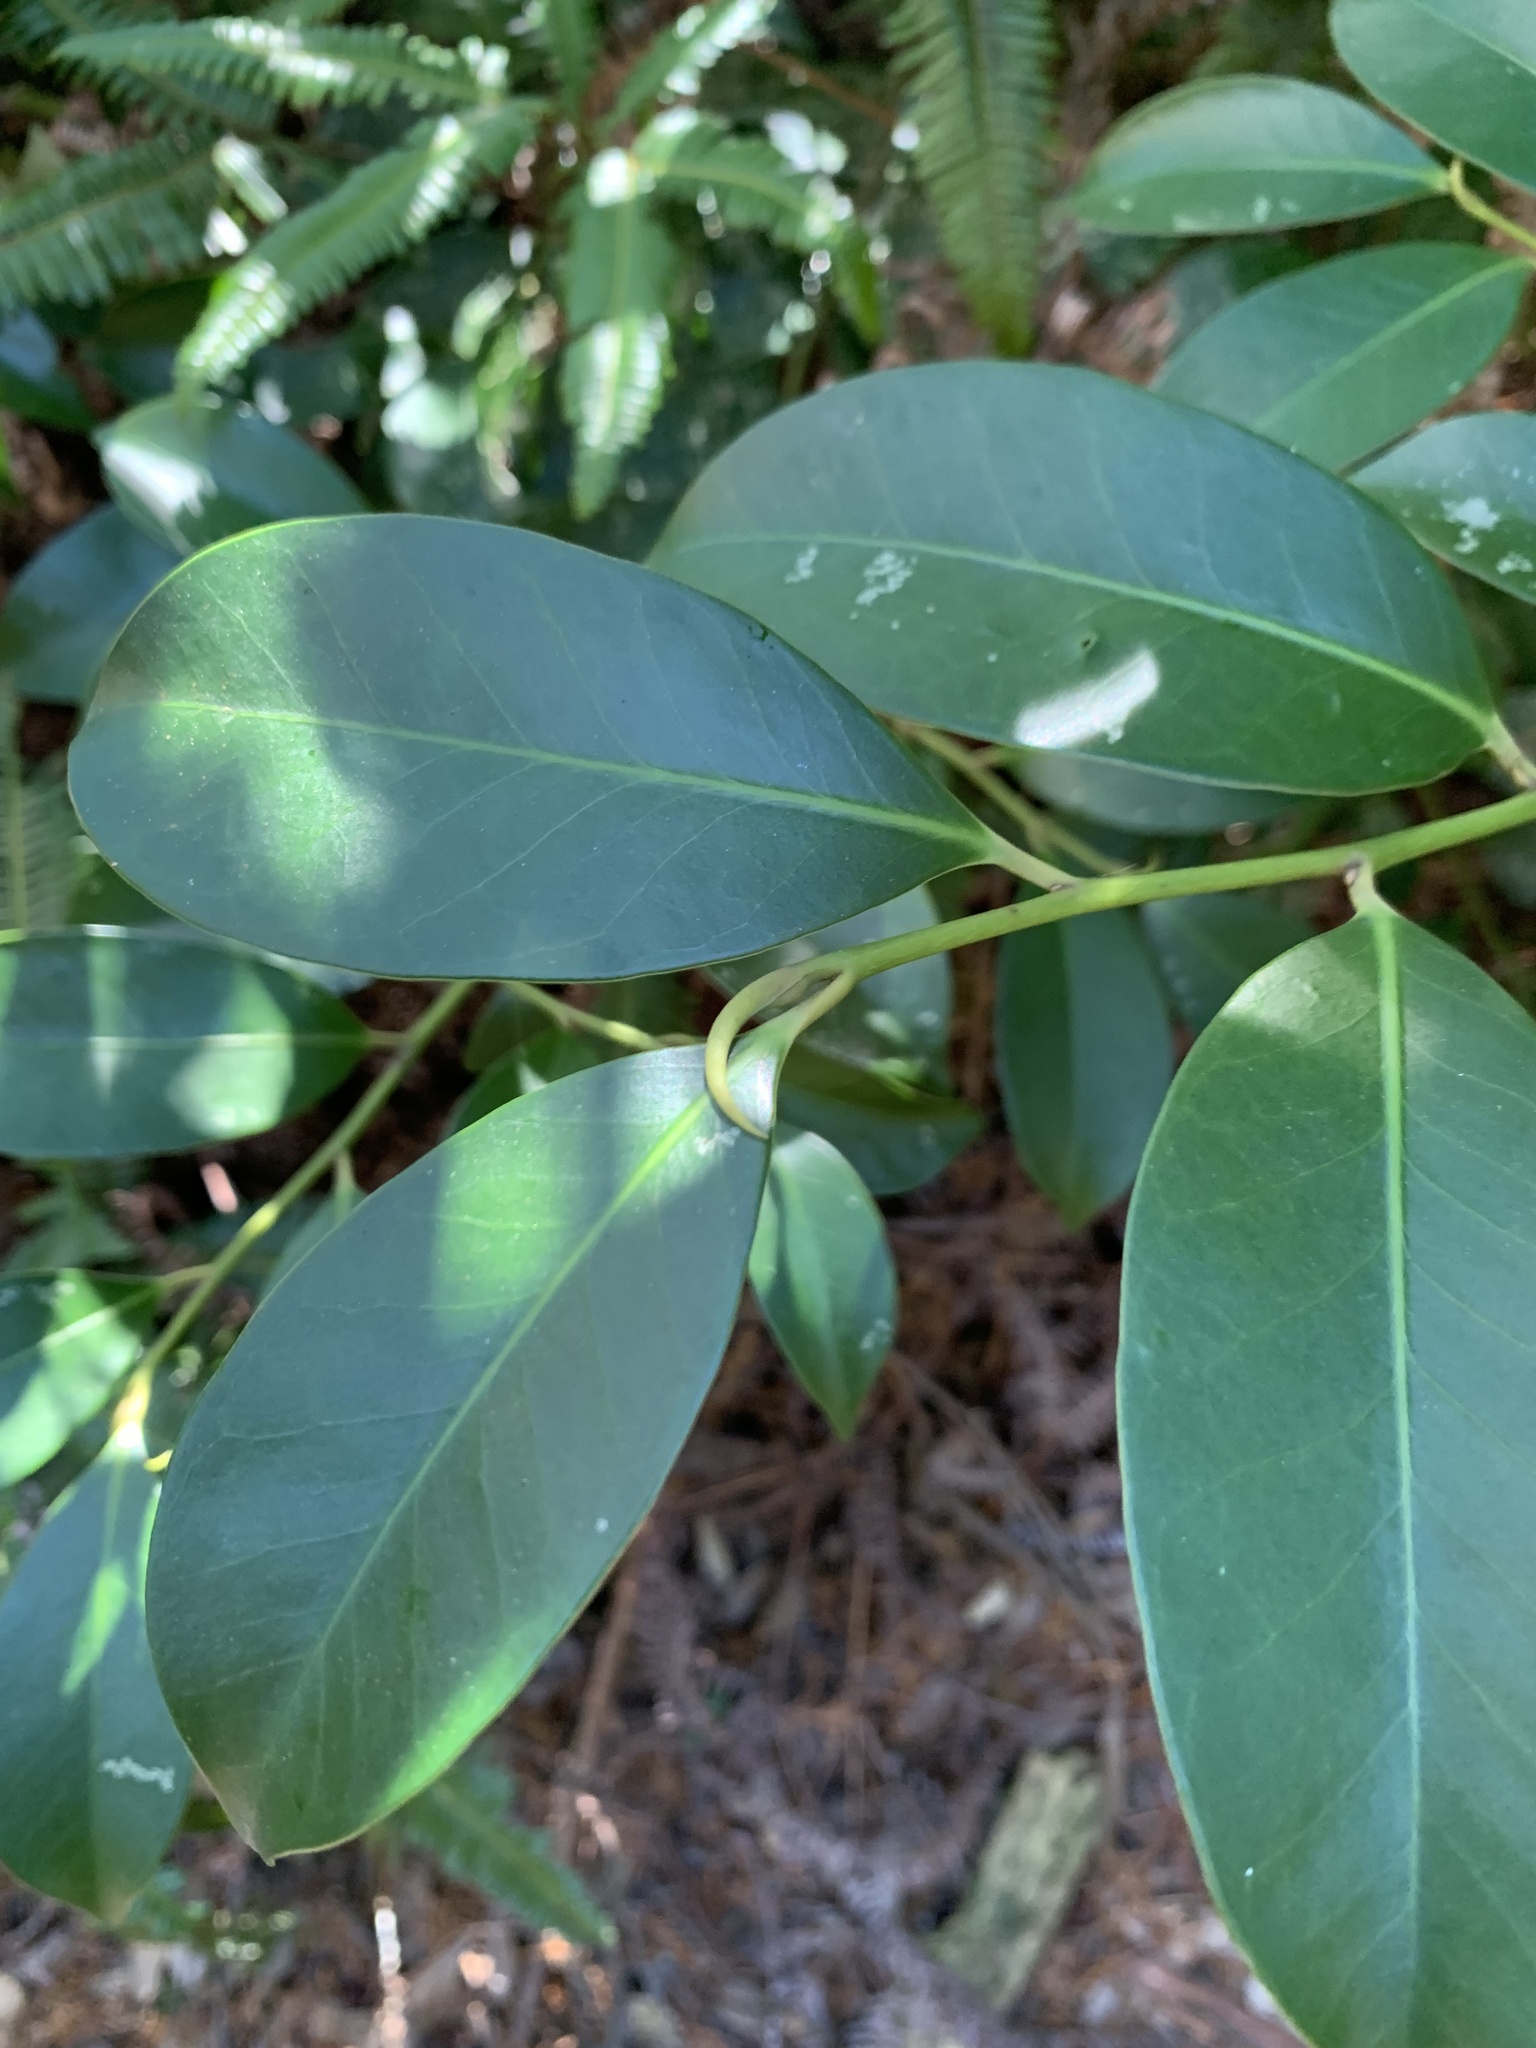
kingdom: Plantae
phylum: Tracheophyta
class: Magnoliopsida
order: Ericales
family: Pentaphylacaceae
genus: Cleyera
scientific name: Cleyera japonica
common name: Sakaki
